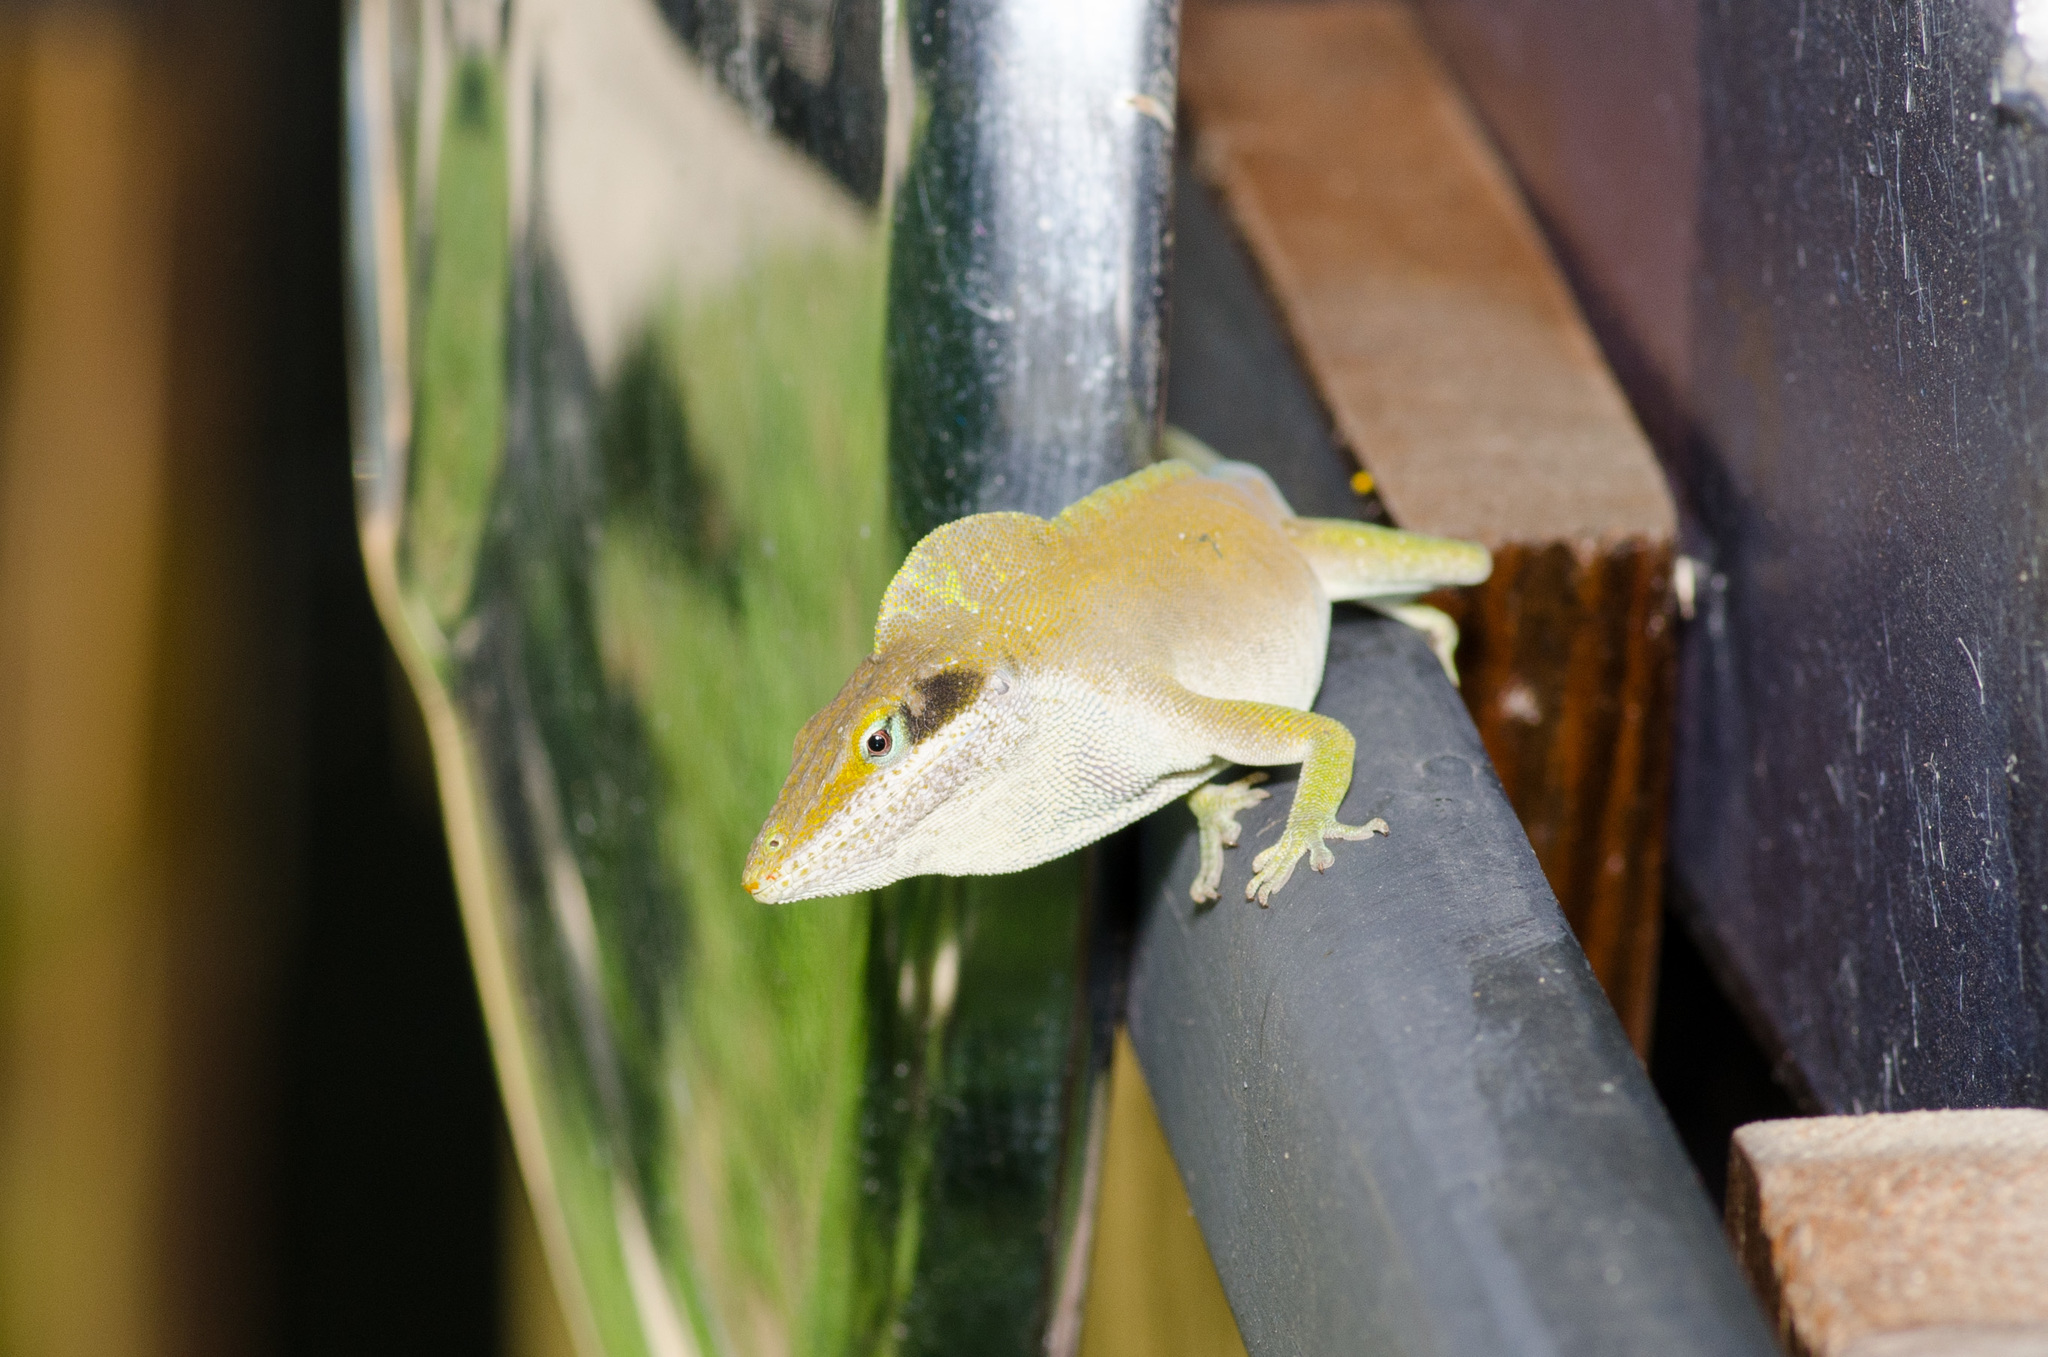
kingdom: Animalia
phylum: Chordata
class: Squamata
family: Dactyloidae
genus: Anolis
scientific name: Anolis carolinensis
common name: Green anole
